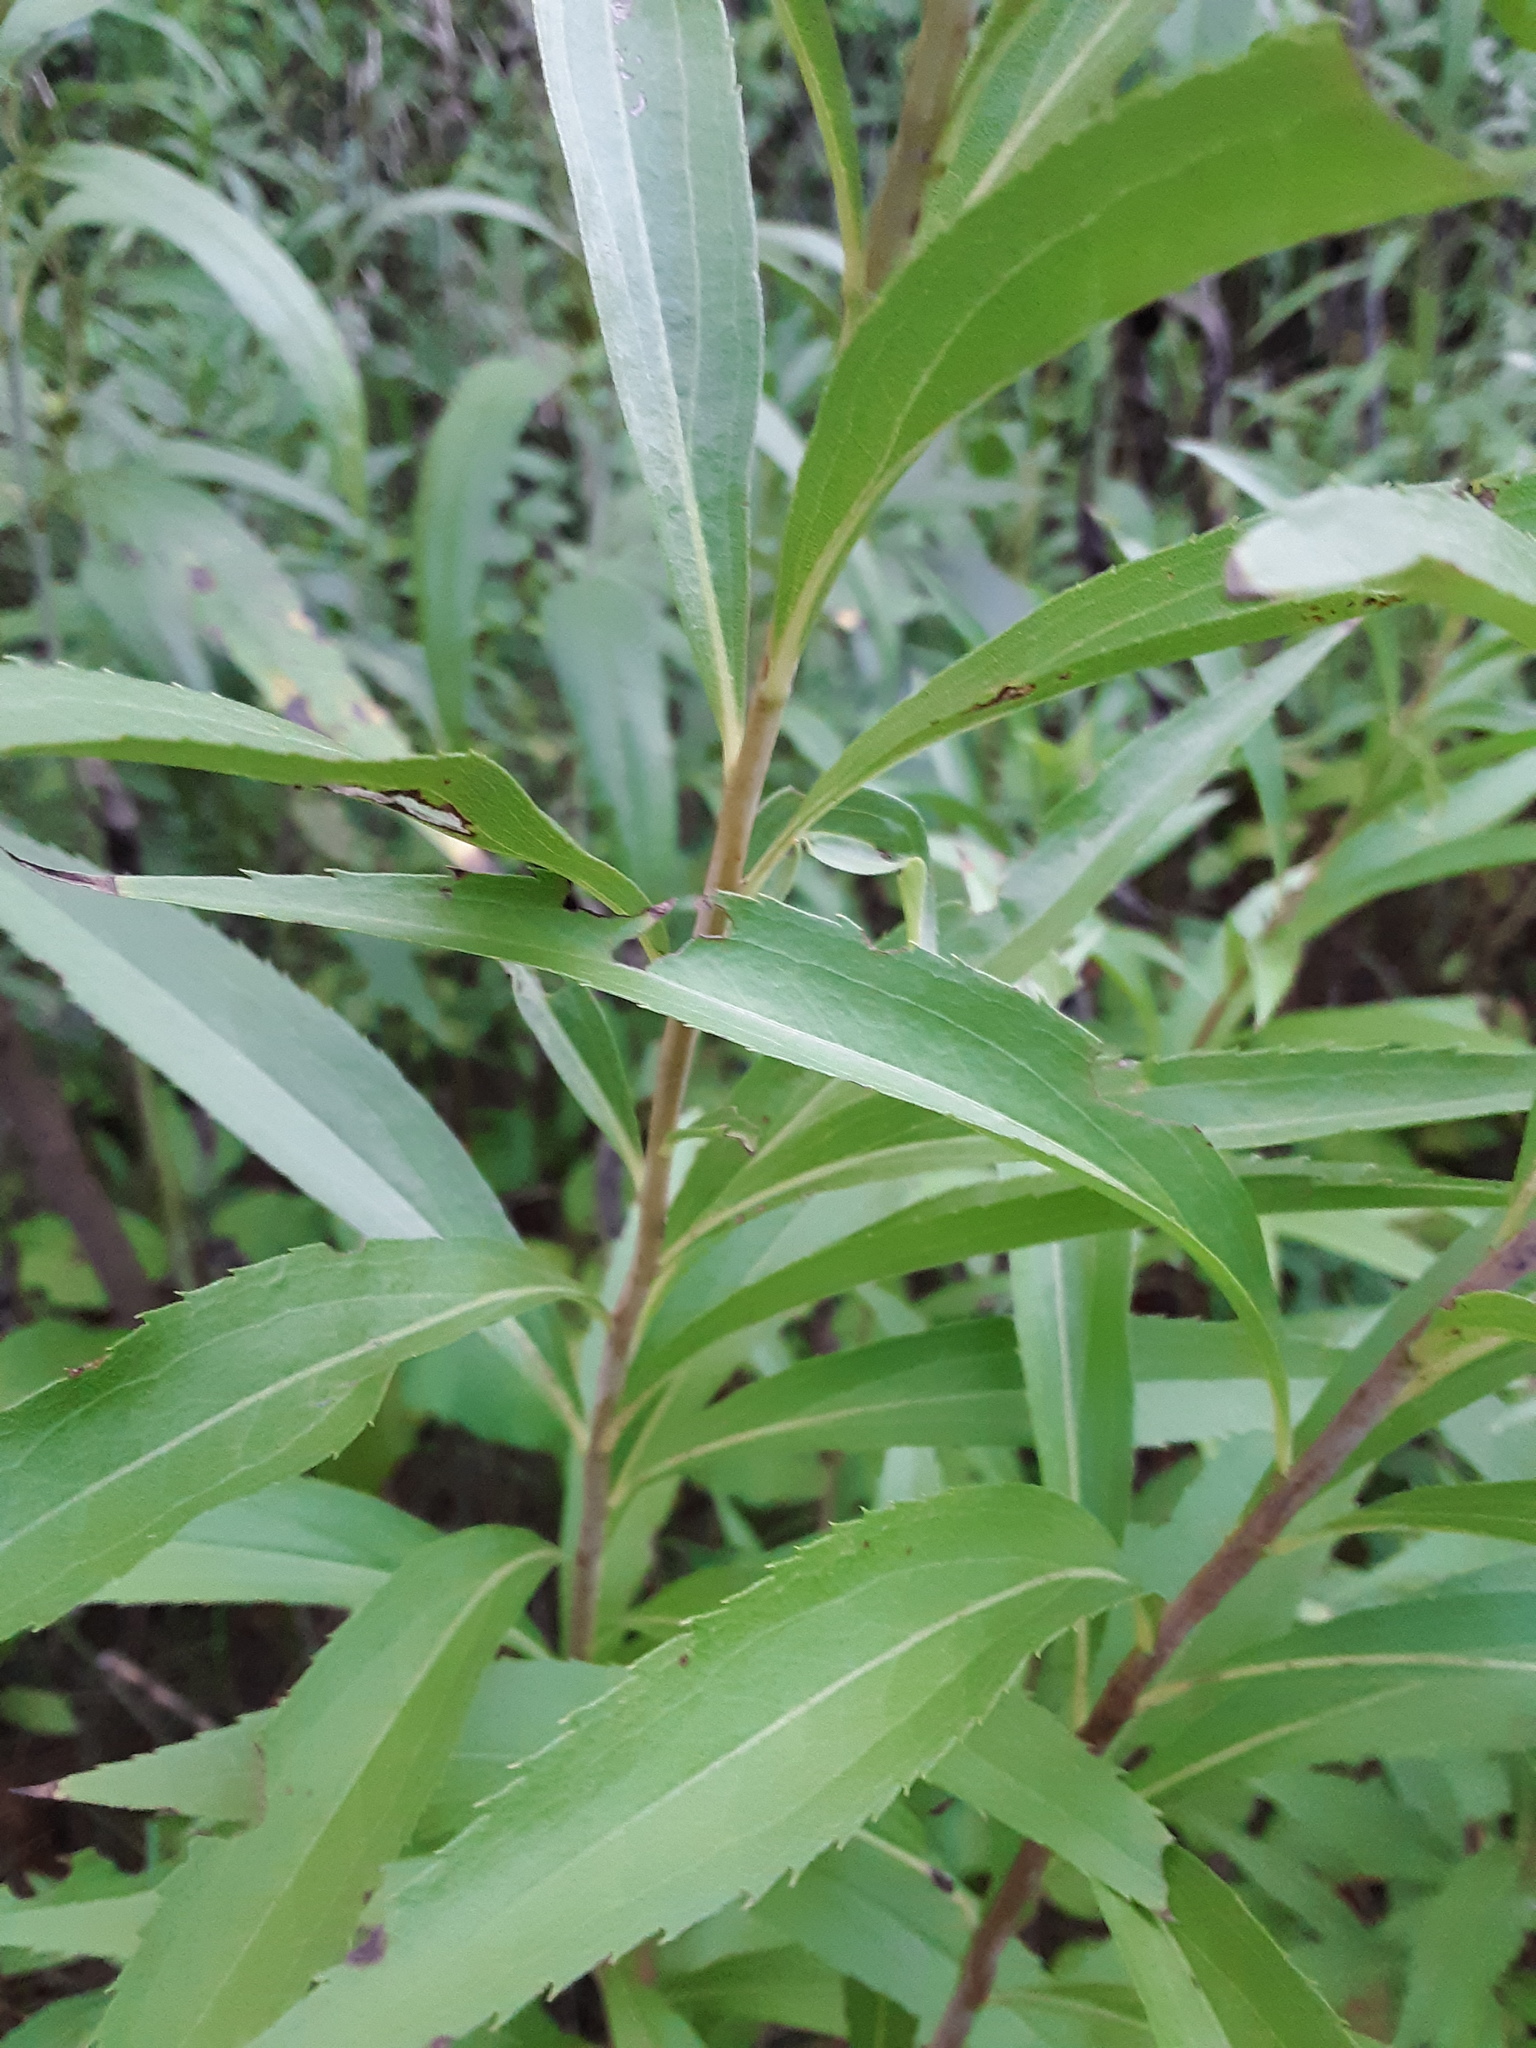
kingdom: Plantae
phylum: Tracheophyta
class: Magnoliopsida
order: Asterales
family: Asteraceae
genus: Solidago
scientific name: Solidago gigantea
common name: Giant goldenrod
